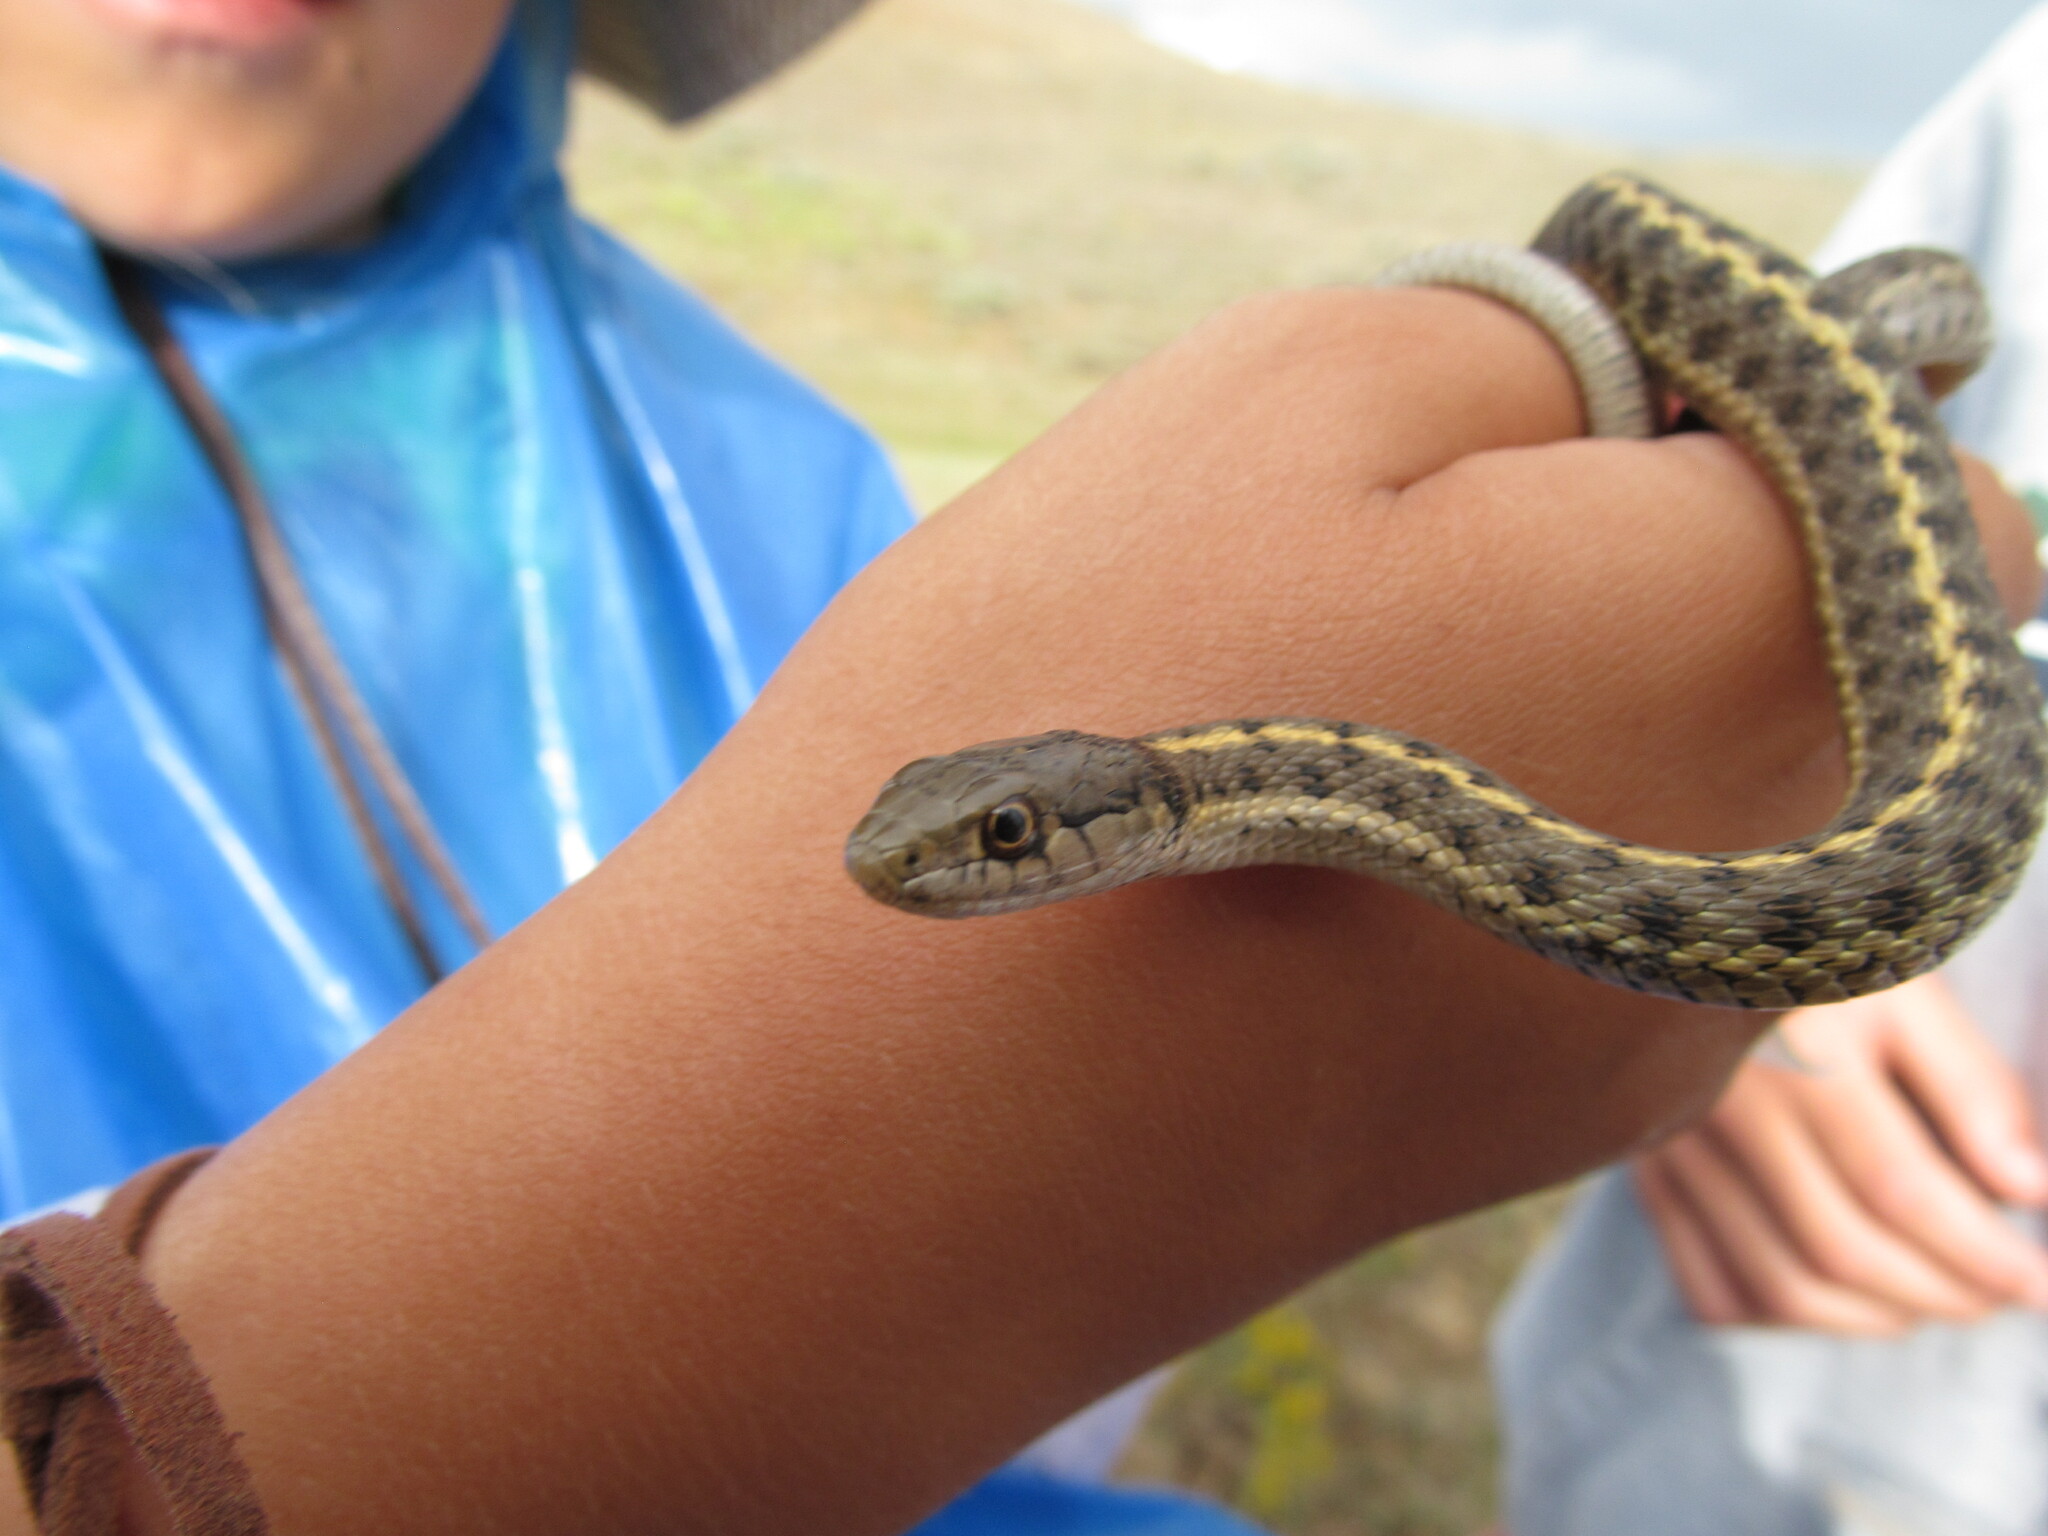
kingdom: Animalia
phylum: Chordata
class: Squamata
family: Colubridae
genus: Thamnophis
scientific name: Thamnophis elegans
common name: Western terrestrial garter snake
